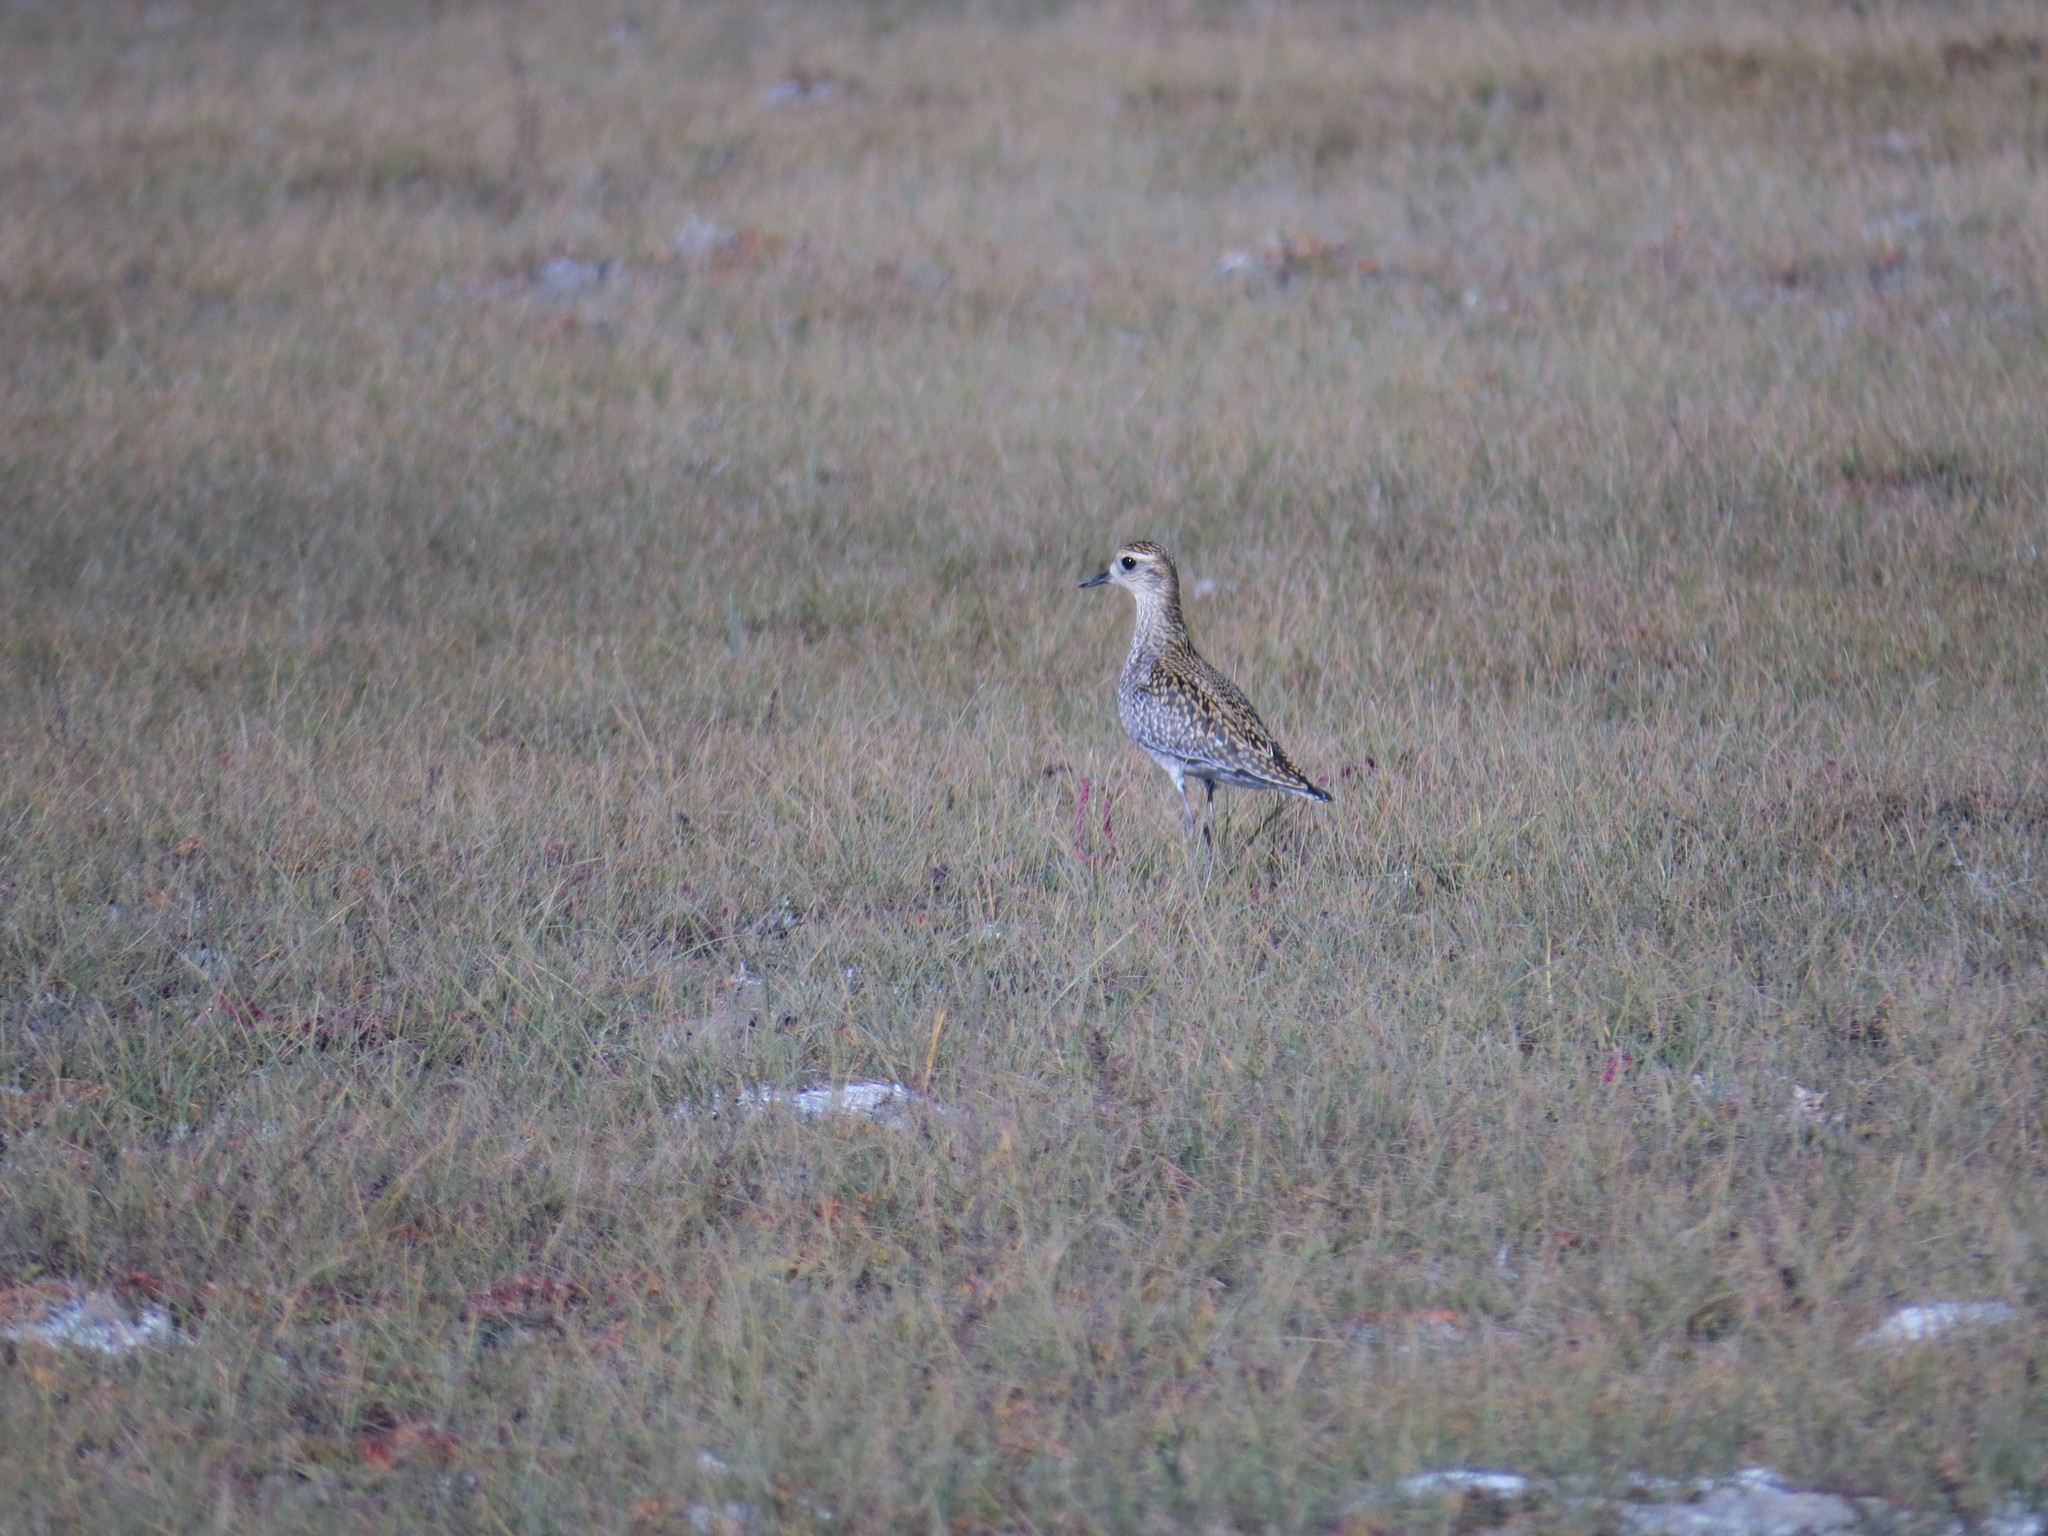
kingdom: Animalia
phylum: Chordata
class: Aves
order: Charadriiformes
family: Charadriidae
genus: Pluvialis
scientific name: Pluvialis fulva
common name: Pacific golden plover
